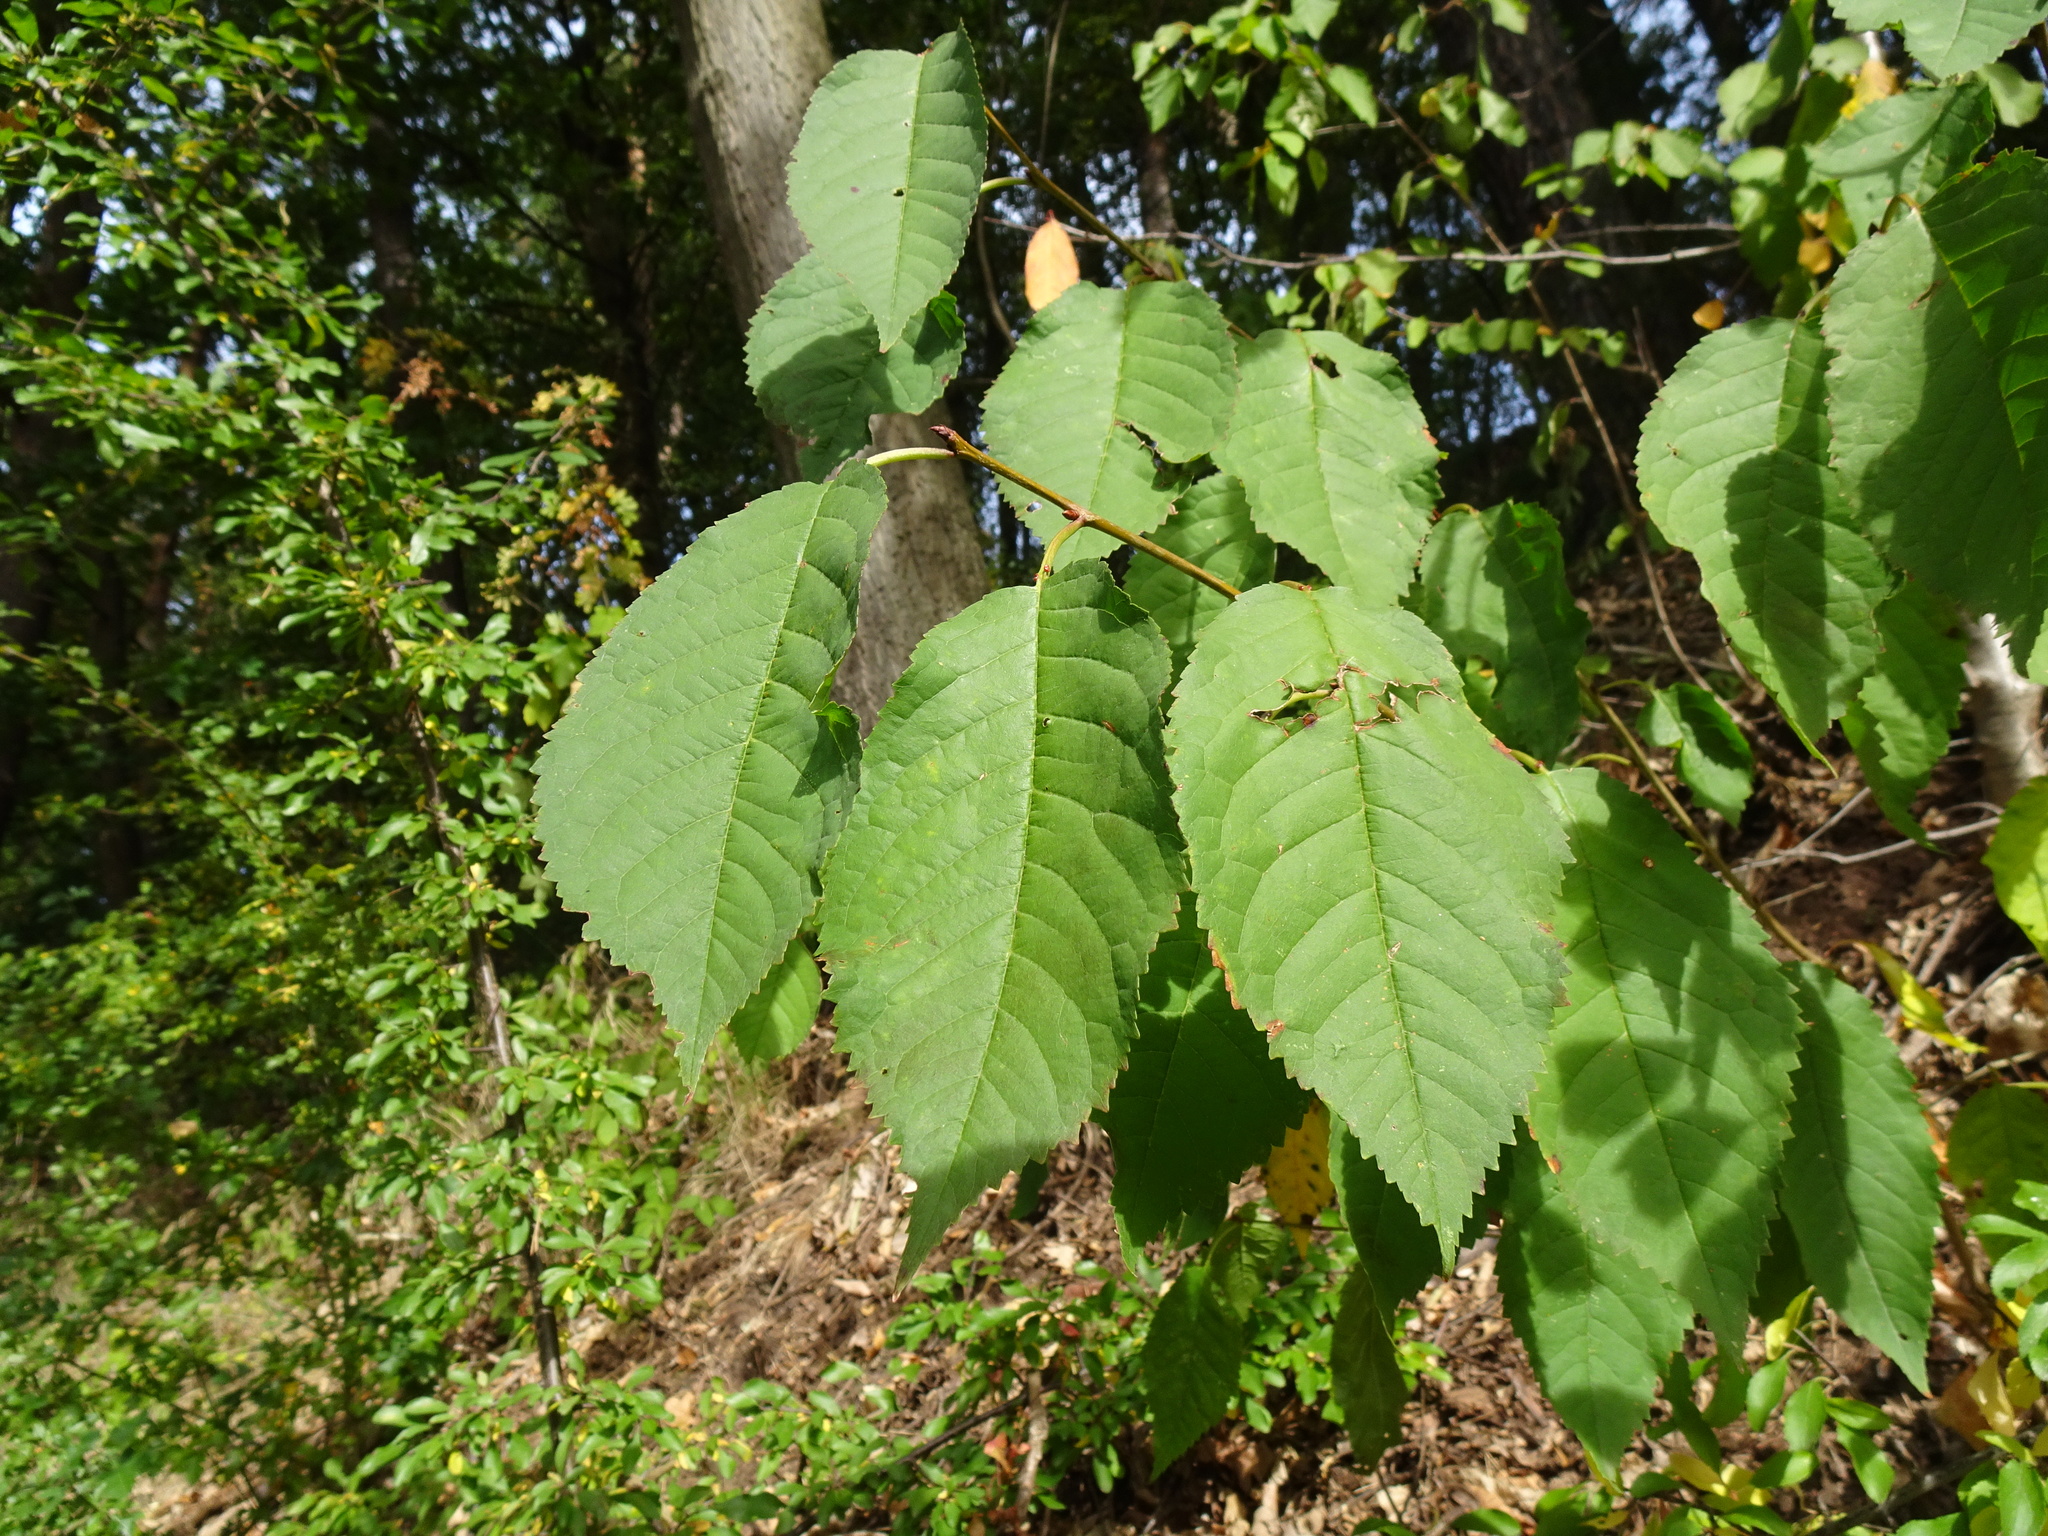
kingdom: Plantae
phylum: Tracheophyta
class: Magnoliopsida
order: Rosales
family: Rosaceae
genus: Prunus
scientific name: Prunus avium
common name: Sweet cherry
